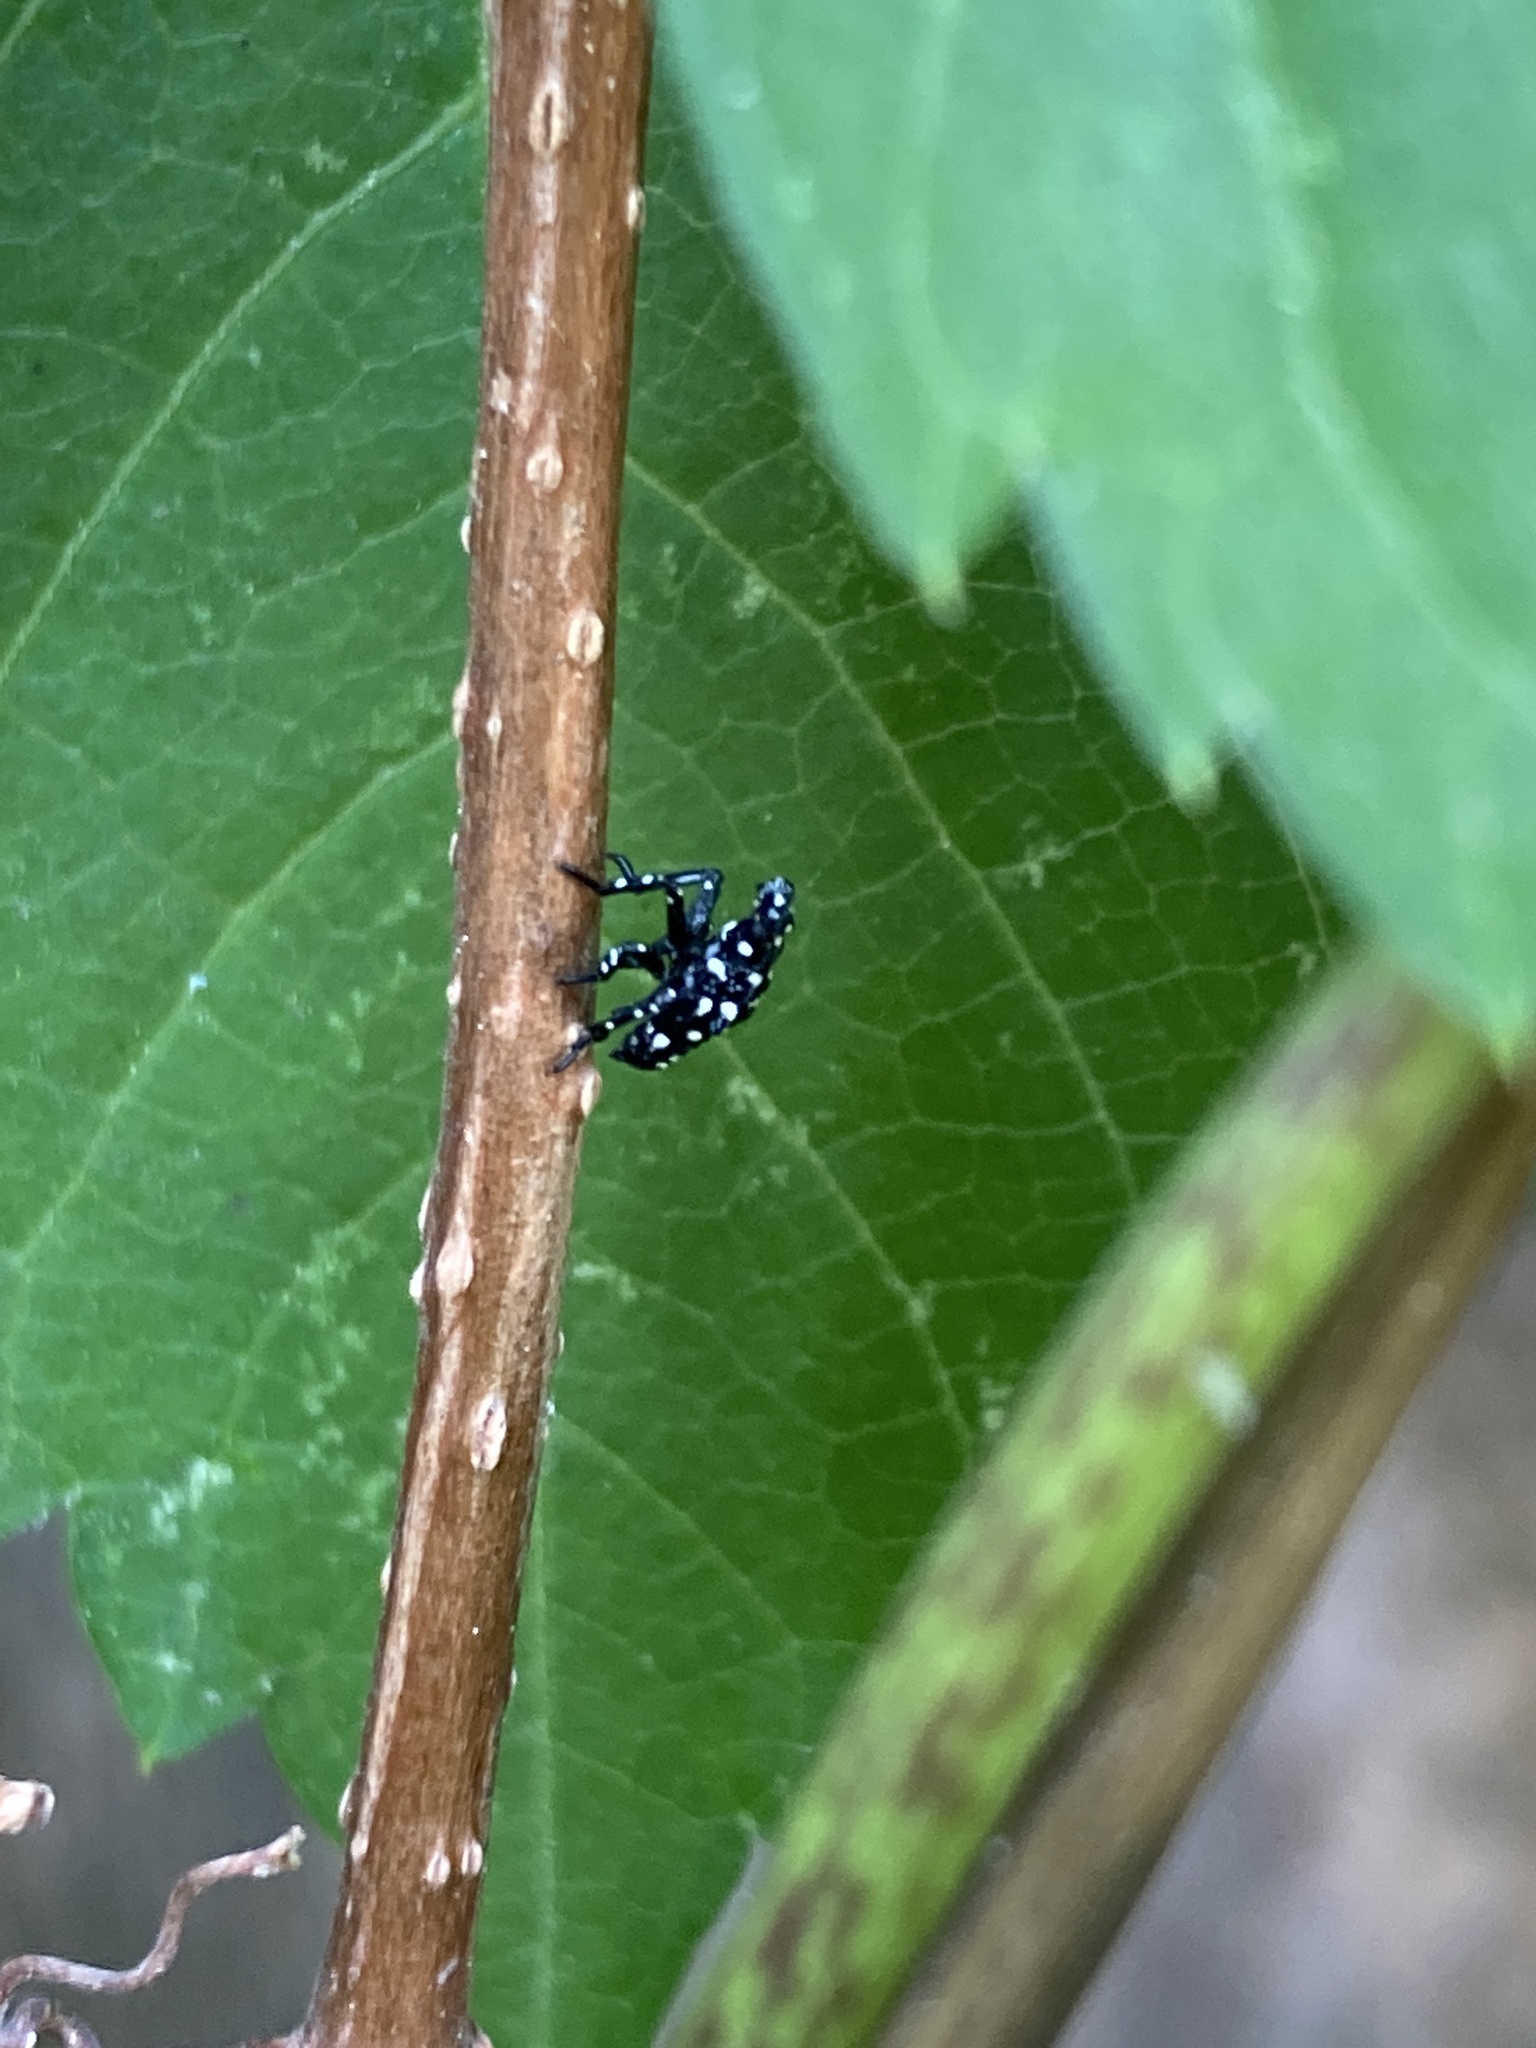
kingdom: Animalia
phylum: Arthropoda
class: Insecta
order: Hemiptera
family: Fulgoridae
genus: Lycorma
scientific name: Lycorma delicatula
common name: Spotted lanternfly
